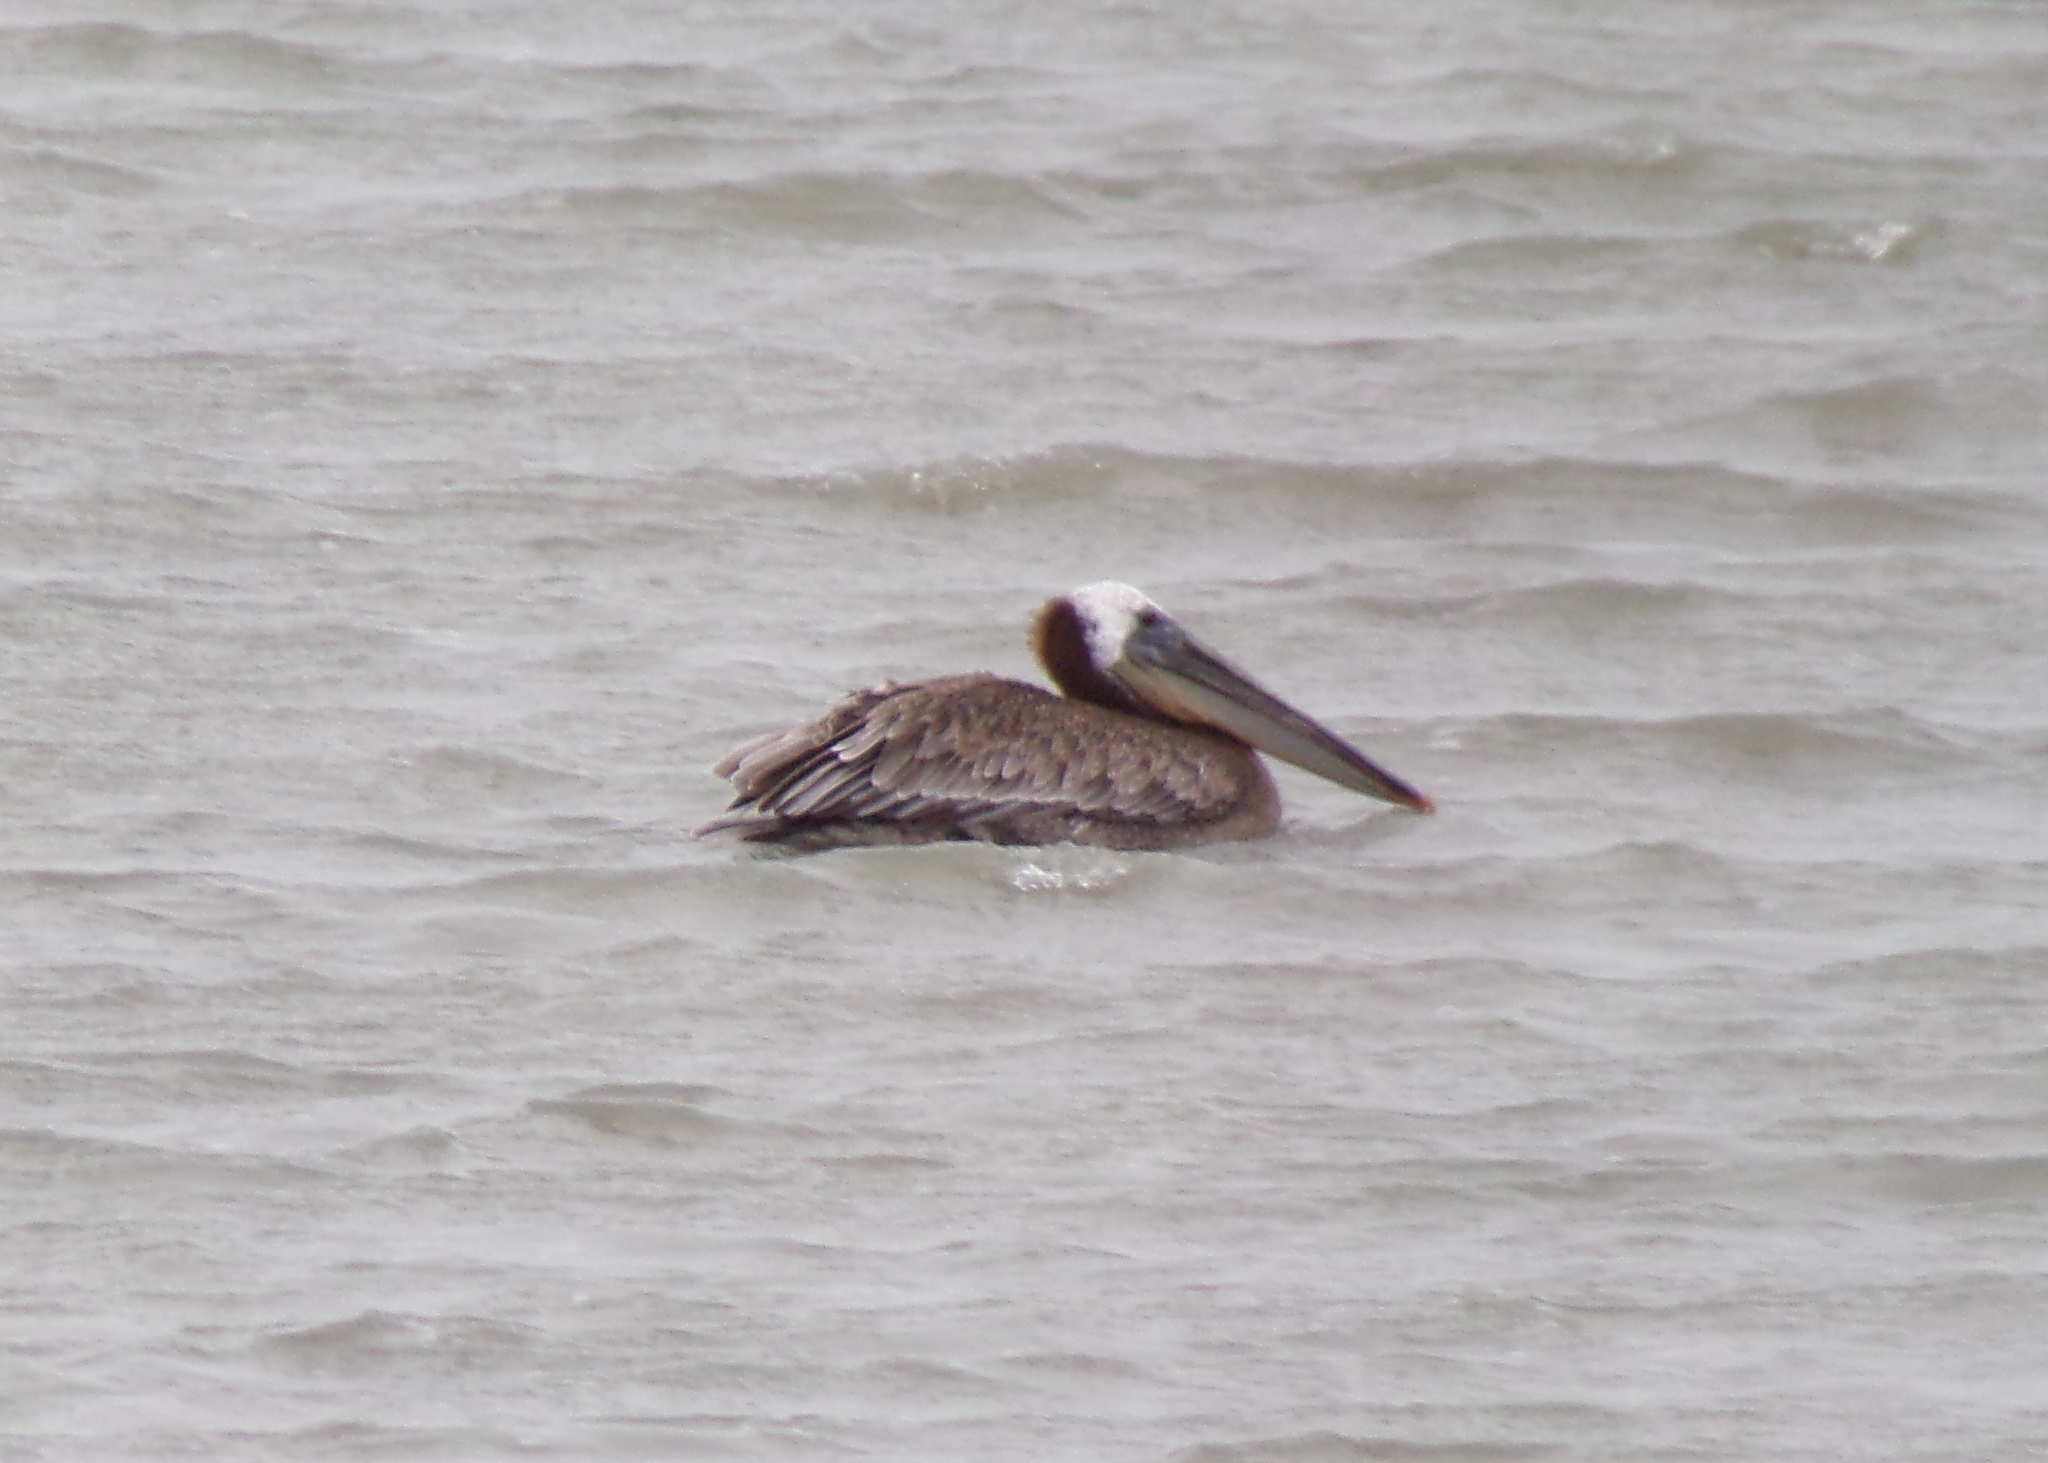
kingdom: Animalia
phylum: Chordata
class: Aves
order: Pelecaniformes
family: Pelecanidae
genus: Pelecanus
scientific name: Pelecanus occidentalis
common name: Brown pelican
